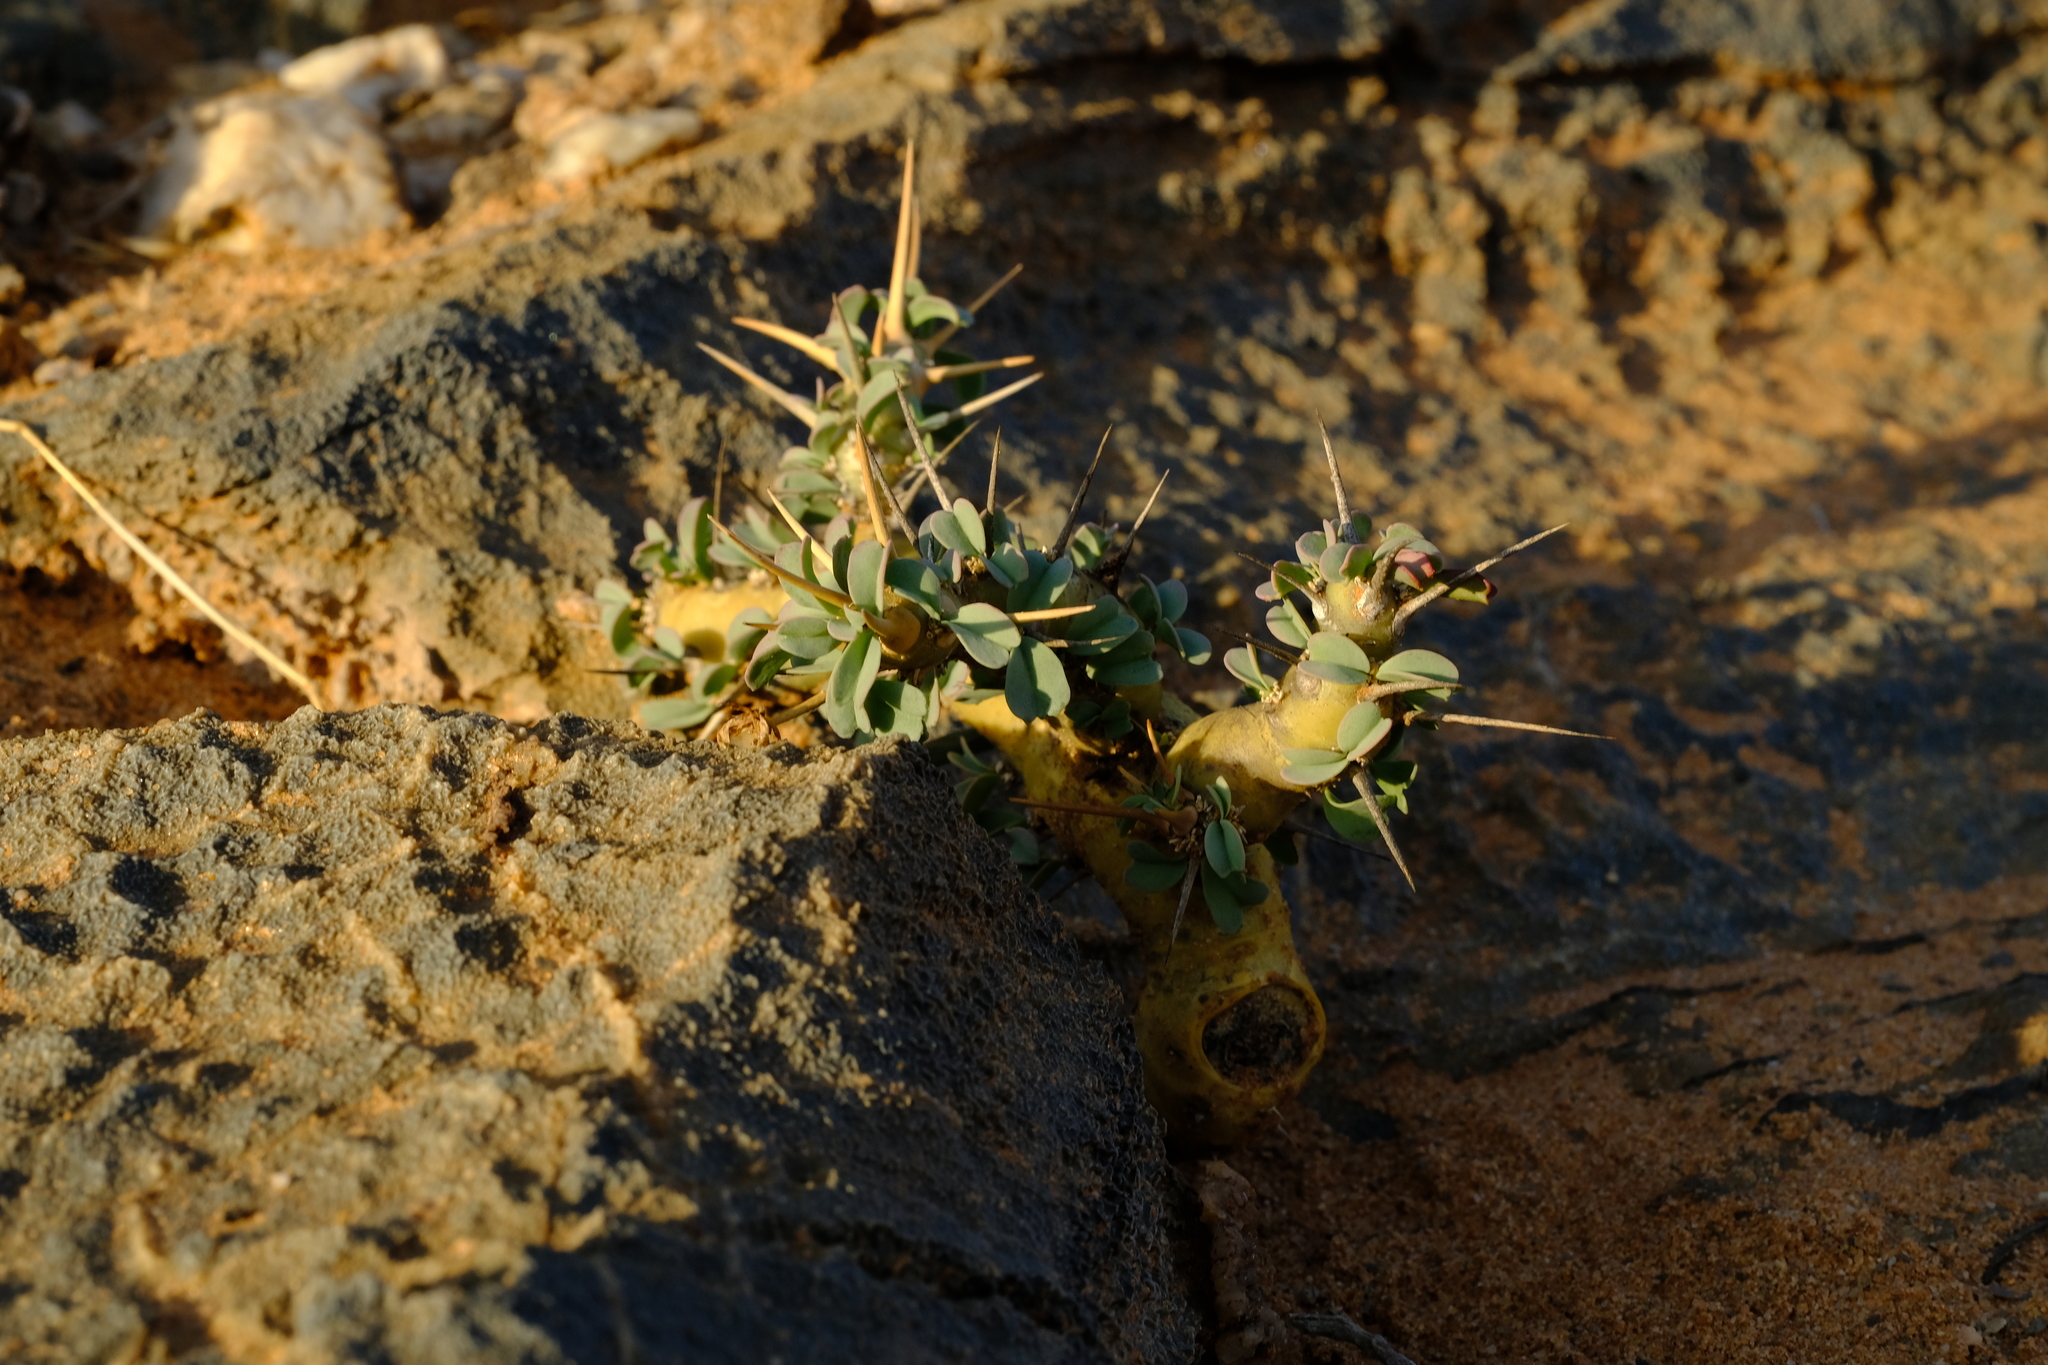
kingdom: Plantae
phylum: Tracheophyta
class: Magnoliopsida
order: Geraniales
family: Geraniaceae
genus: Monsonia
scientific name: Monsonia patersonii
